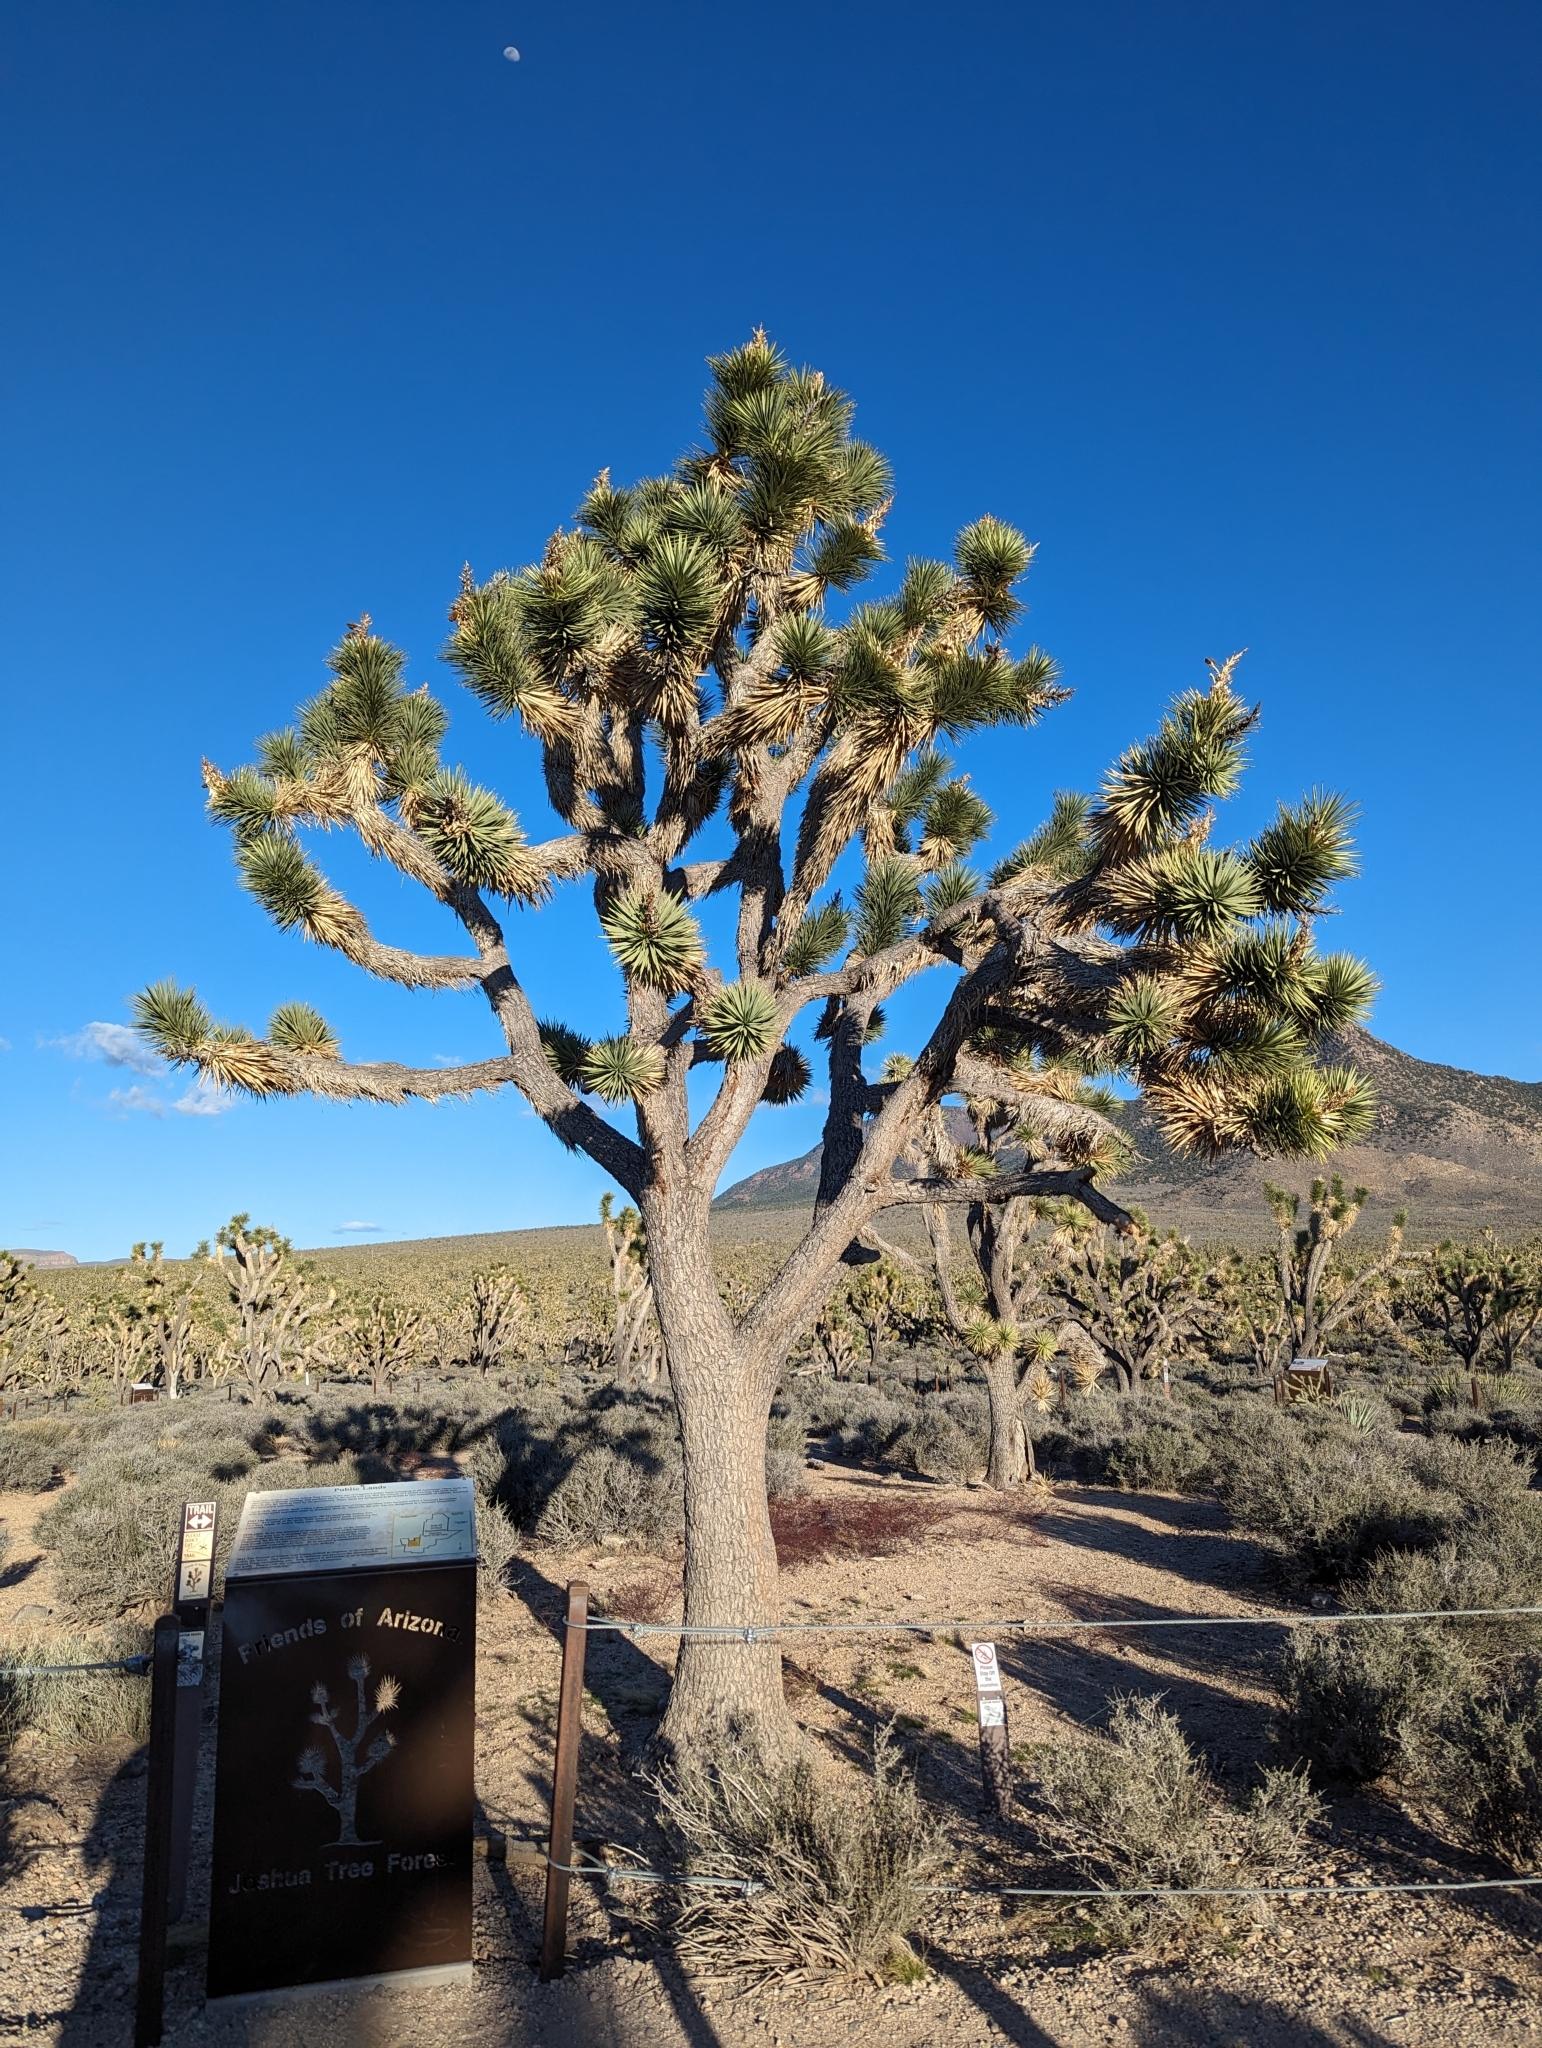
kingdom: Plantae
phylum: Tracheophyta
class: Liliopsida
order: Asparagales
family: Asparagaceae
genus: Yucca
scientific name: Yucca brevifolia
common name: Joshua tree
